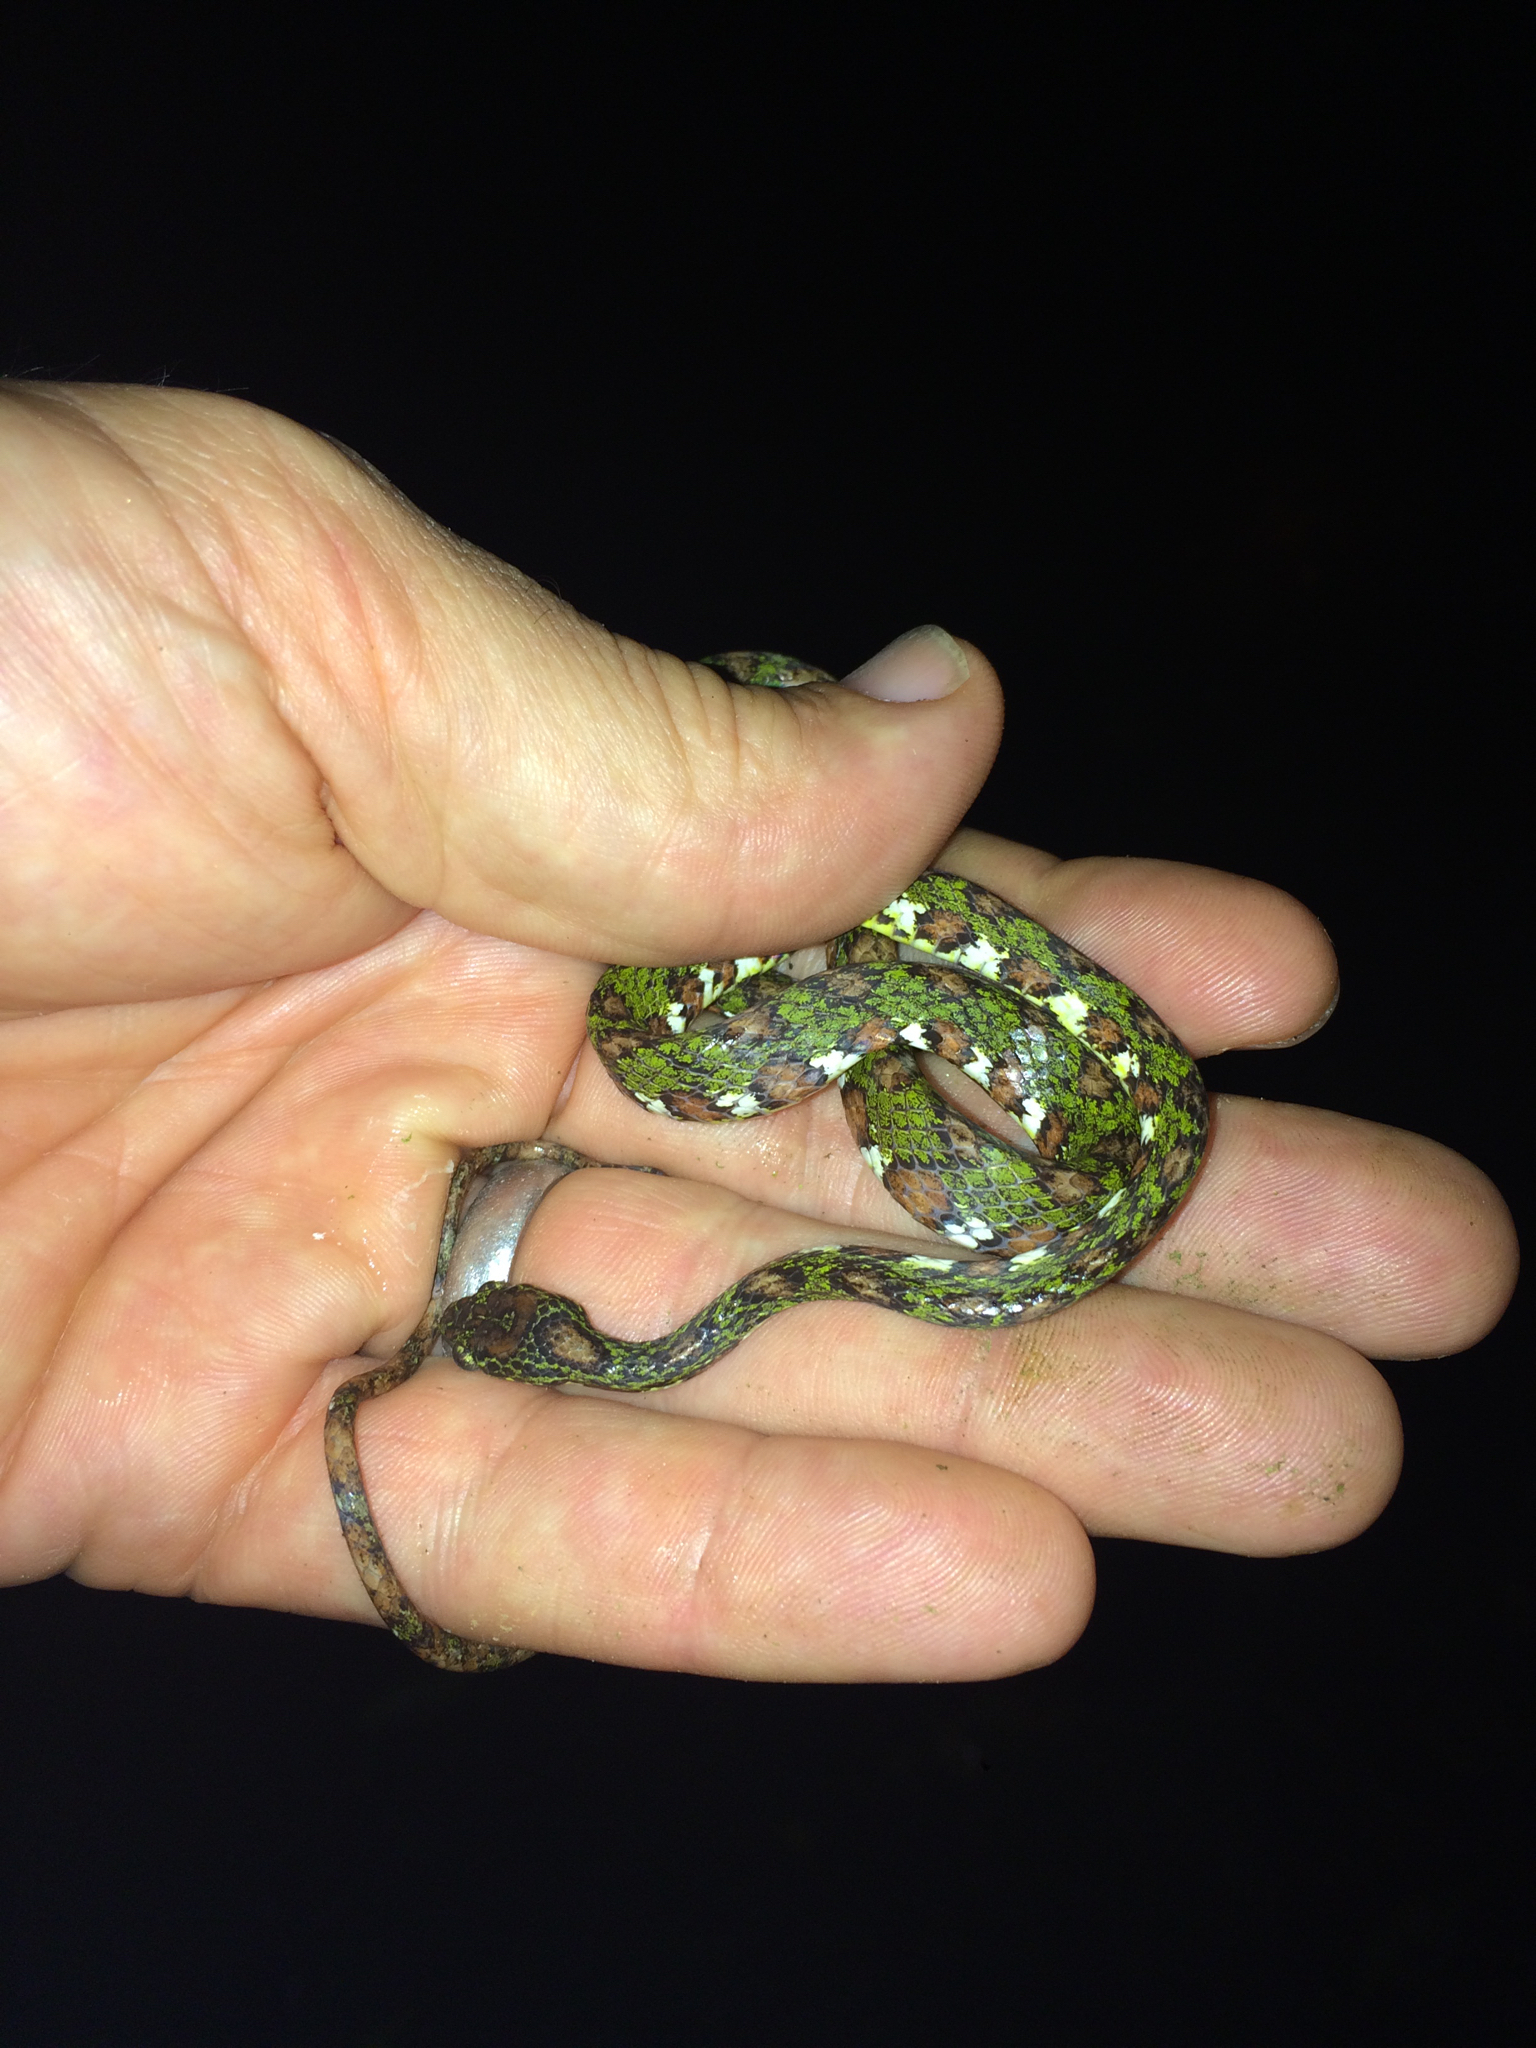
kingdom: Animalia
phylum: Chordata
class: Squamata
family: Colubridae
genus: Sibon
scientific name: Sibon longifrenis
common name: Stejneger's snail sucker
